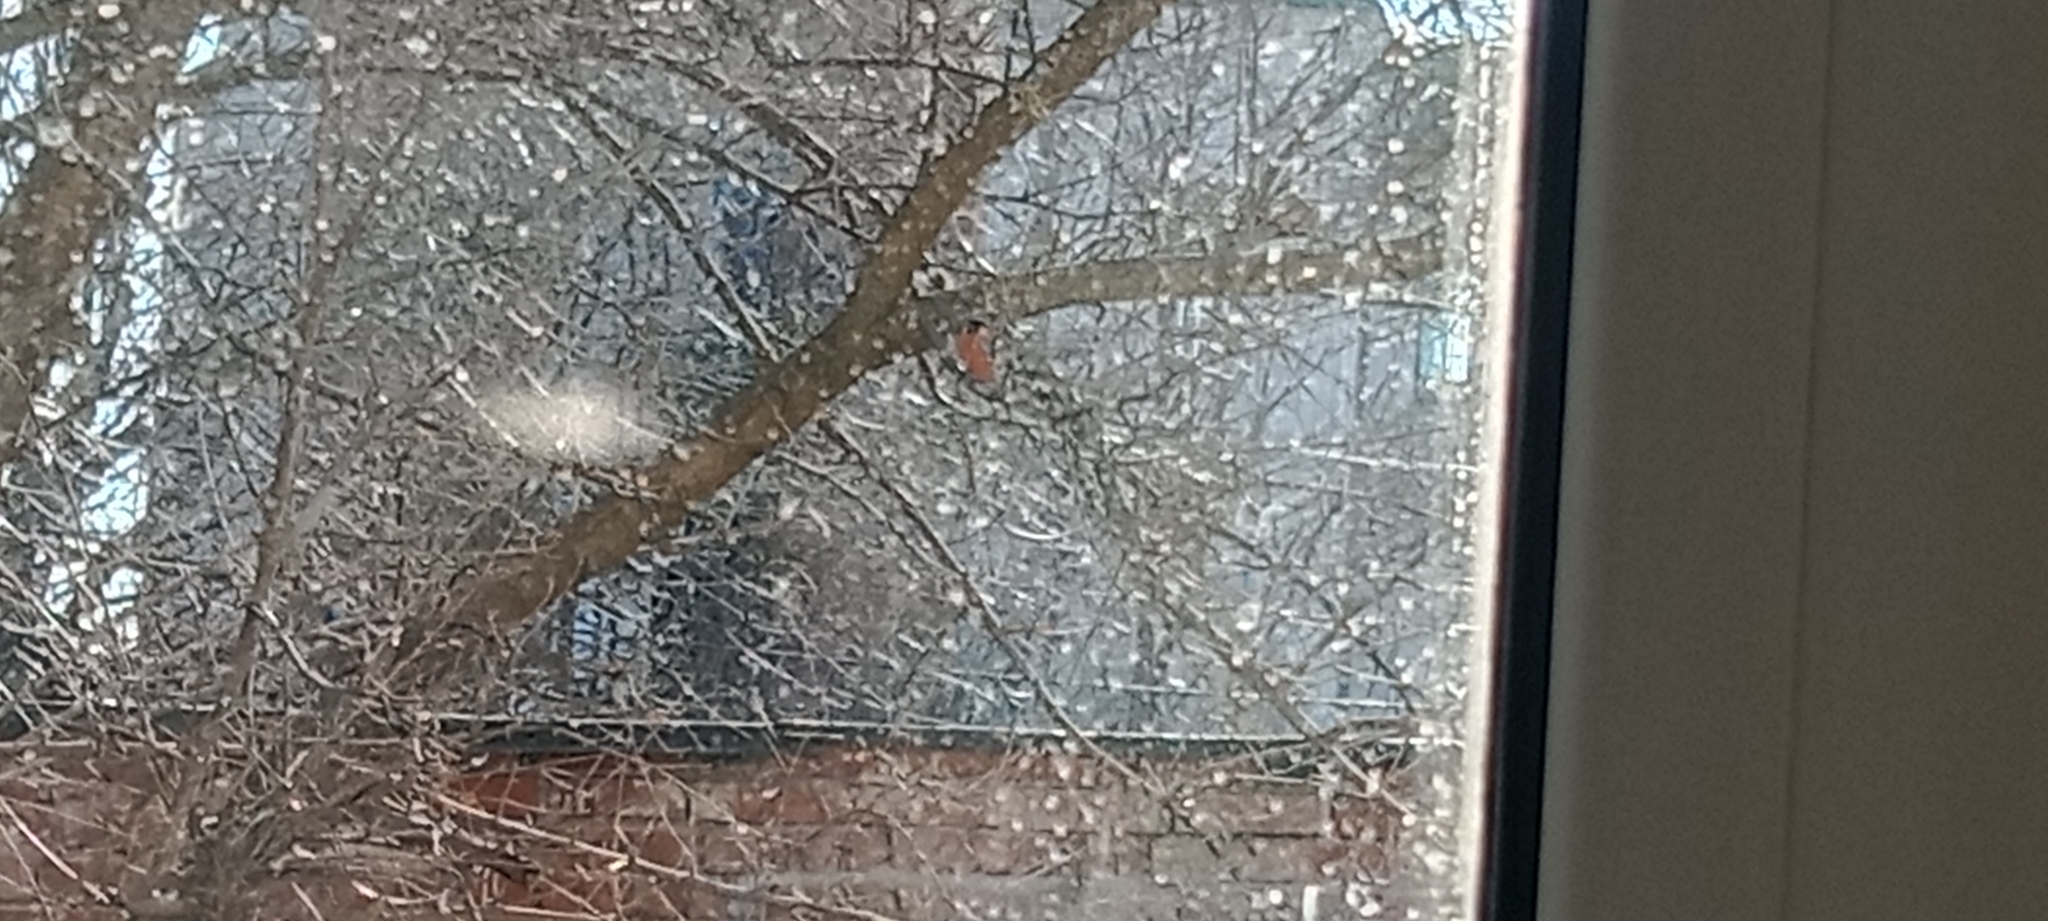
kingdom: Animalia
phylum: Chordata
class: Aves
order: Passeriformes
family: Fringillidae
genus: Pyrrhula
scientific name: Pyrrhula pyrrhula
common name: Eurasian bullfinch
